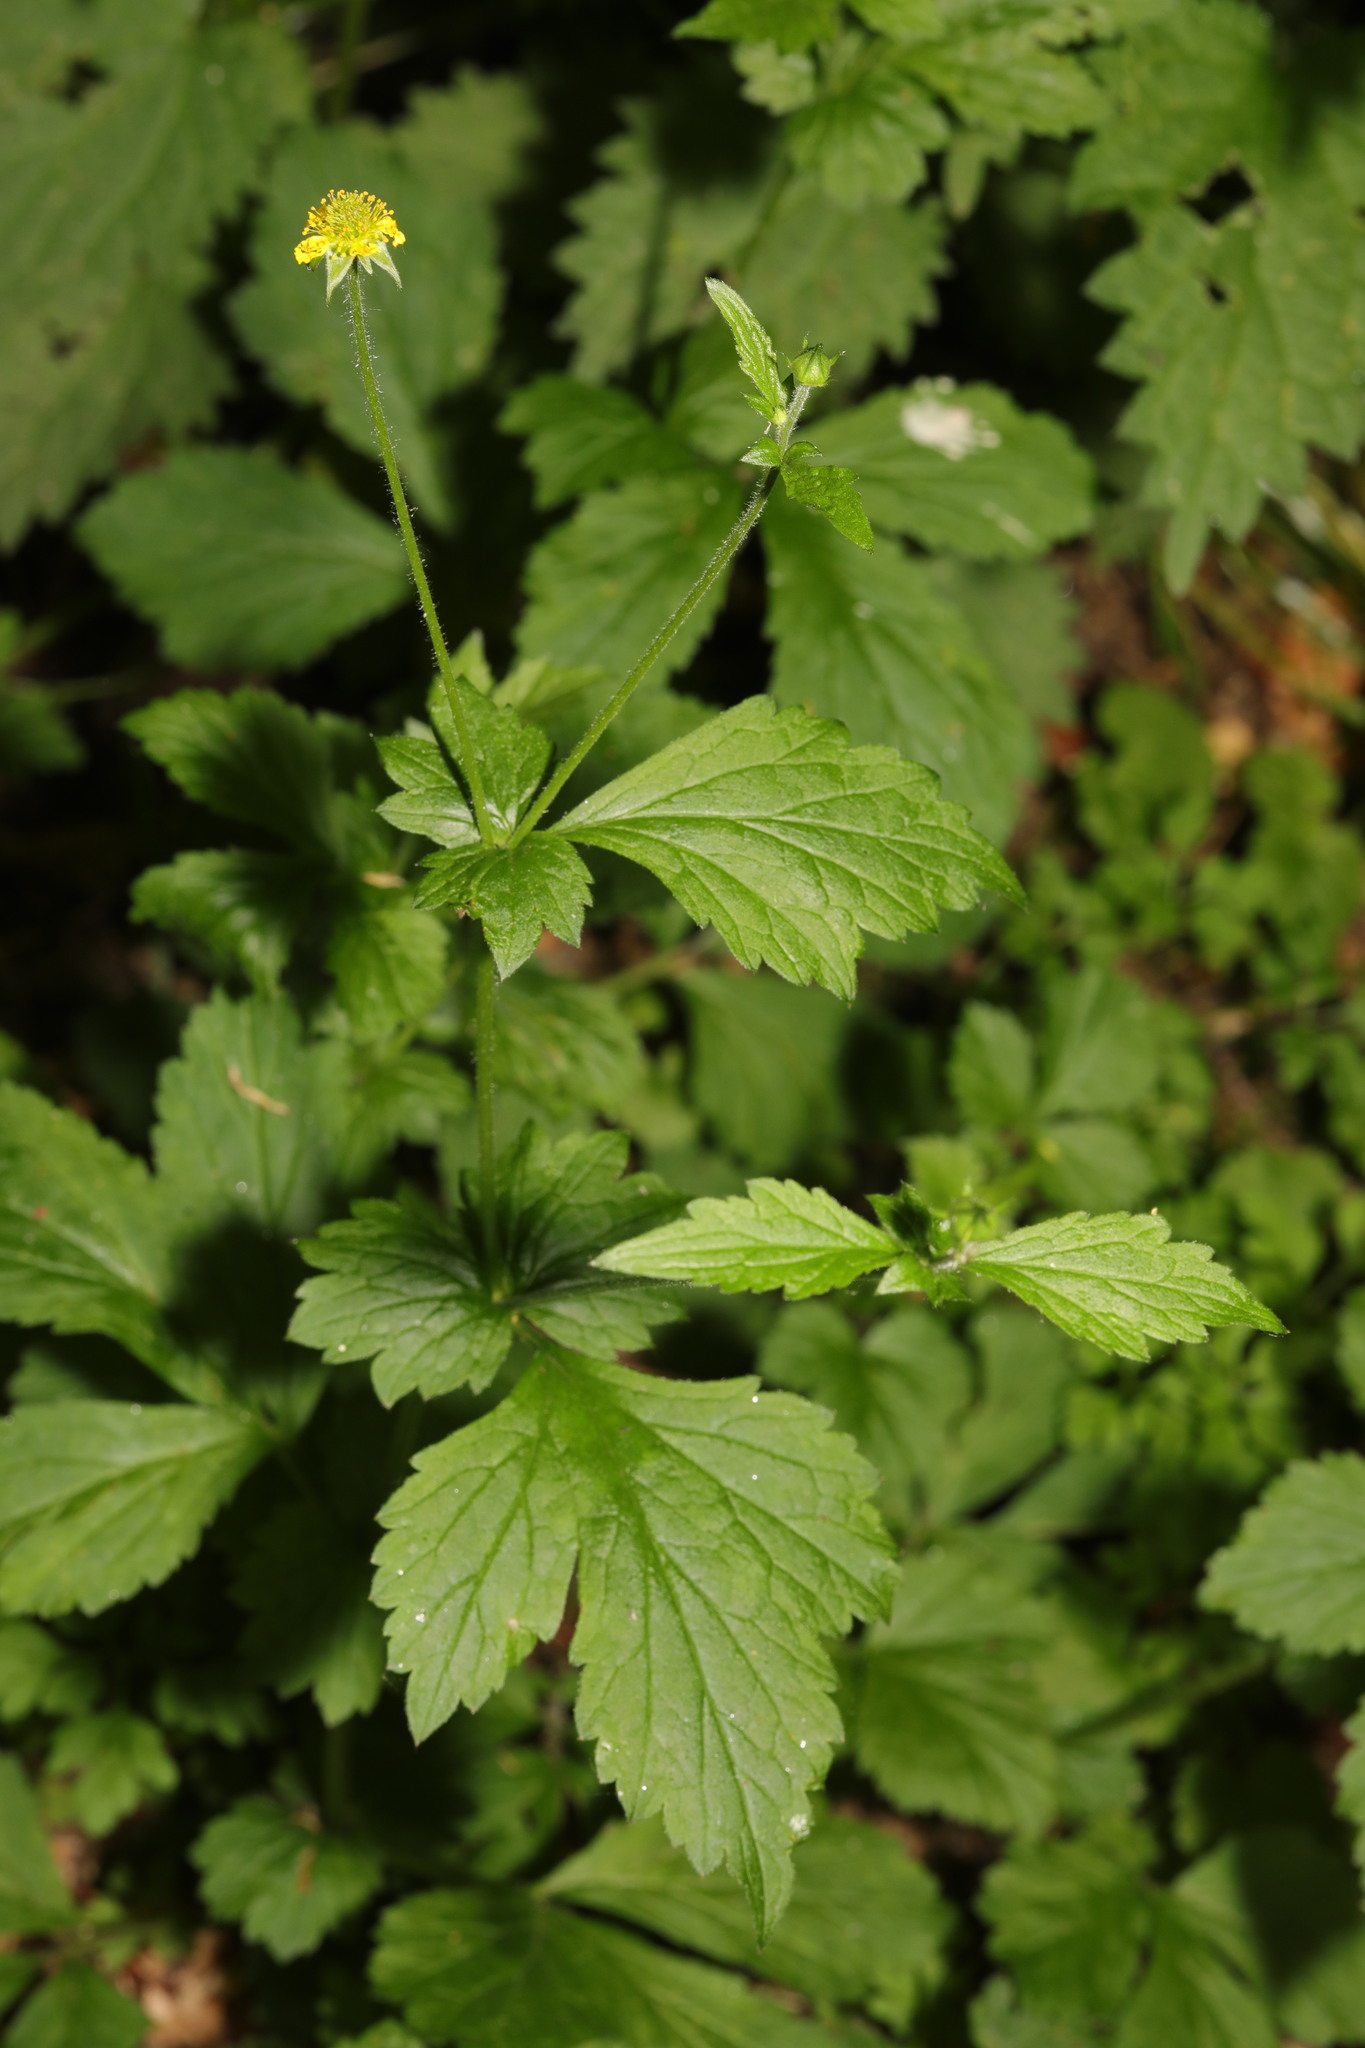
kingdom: Plantae
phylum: Tracheophyta
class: Magnoliopsida
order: Rosales
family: Rosaceae
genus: Geum
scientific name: Geum urbanum
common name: Wood avens
